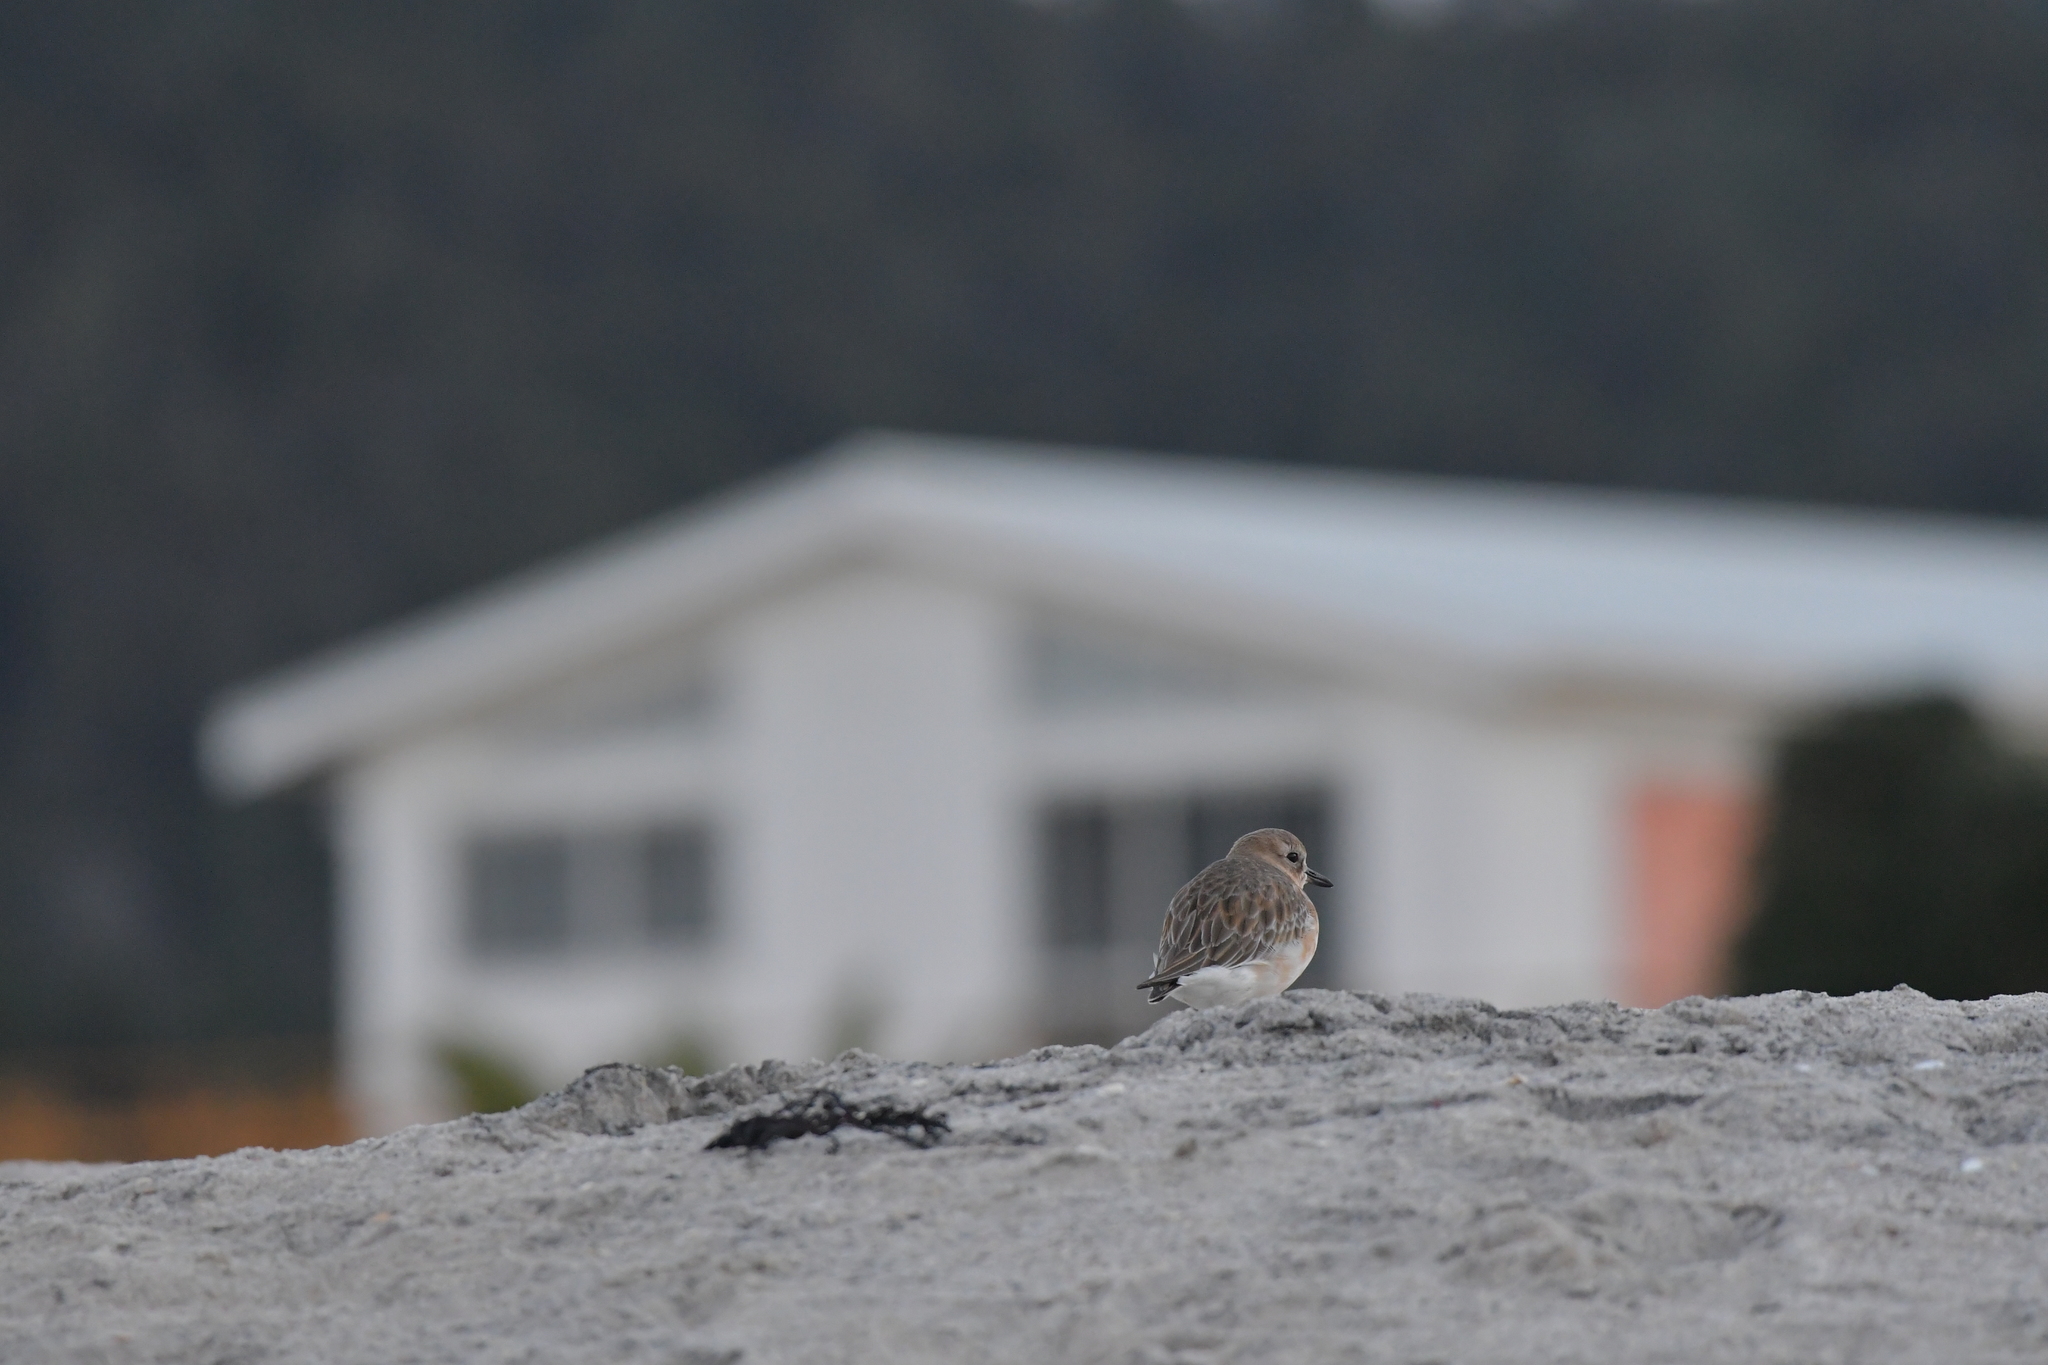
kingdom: Animalia
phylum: Chordata
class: Aves
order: Charadriiformes
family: Charadriidae
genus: Anarhynchus
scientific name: Anarhynchus
